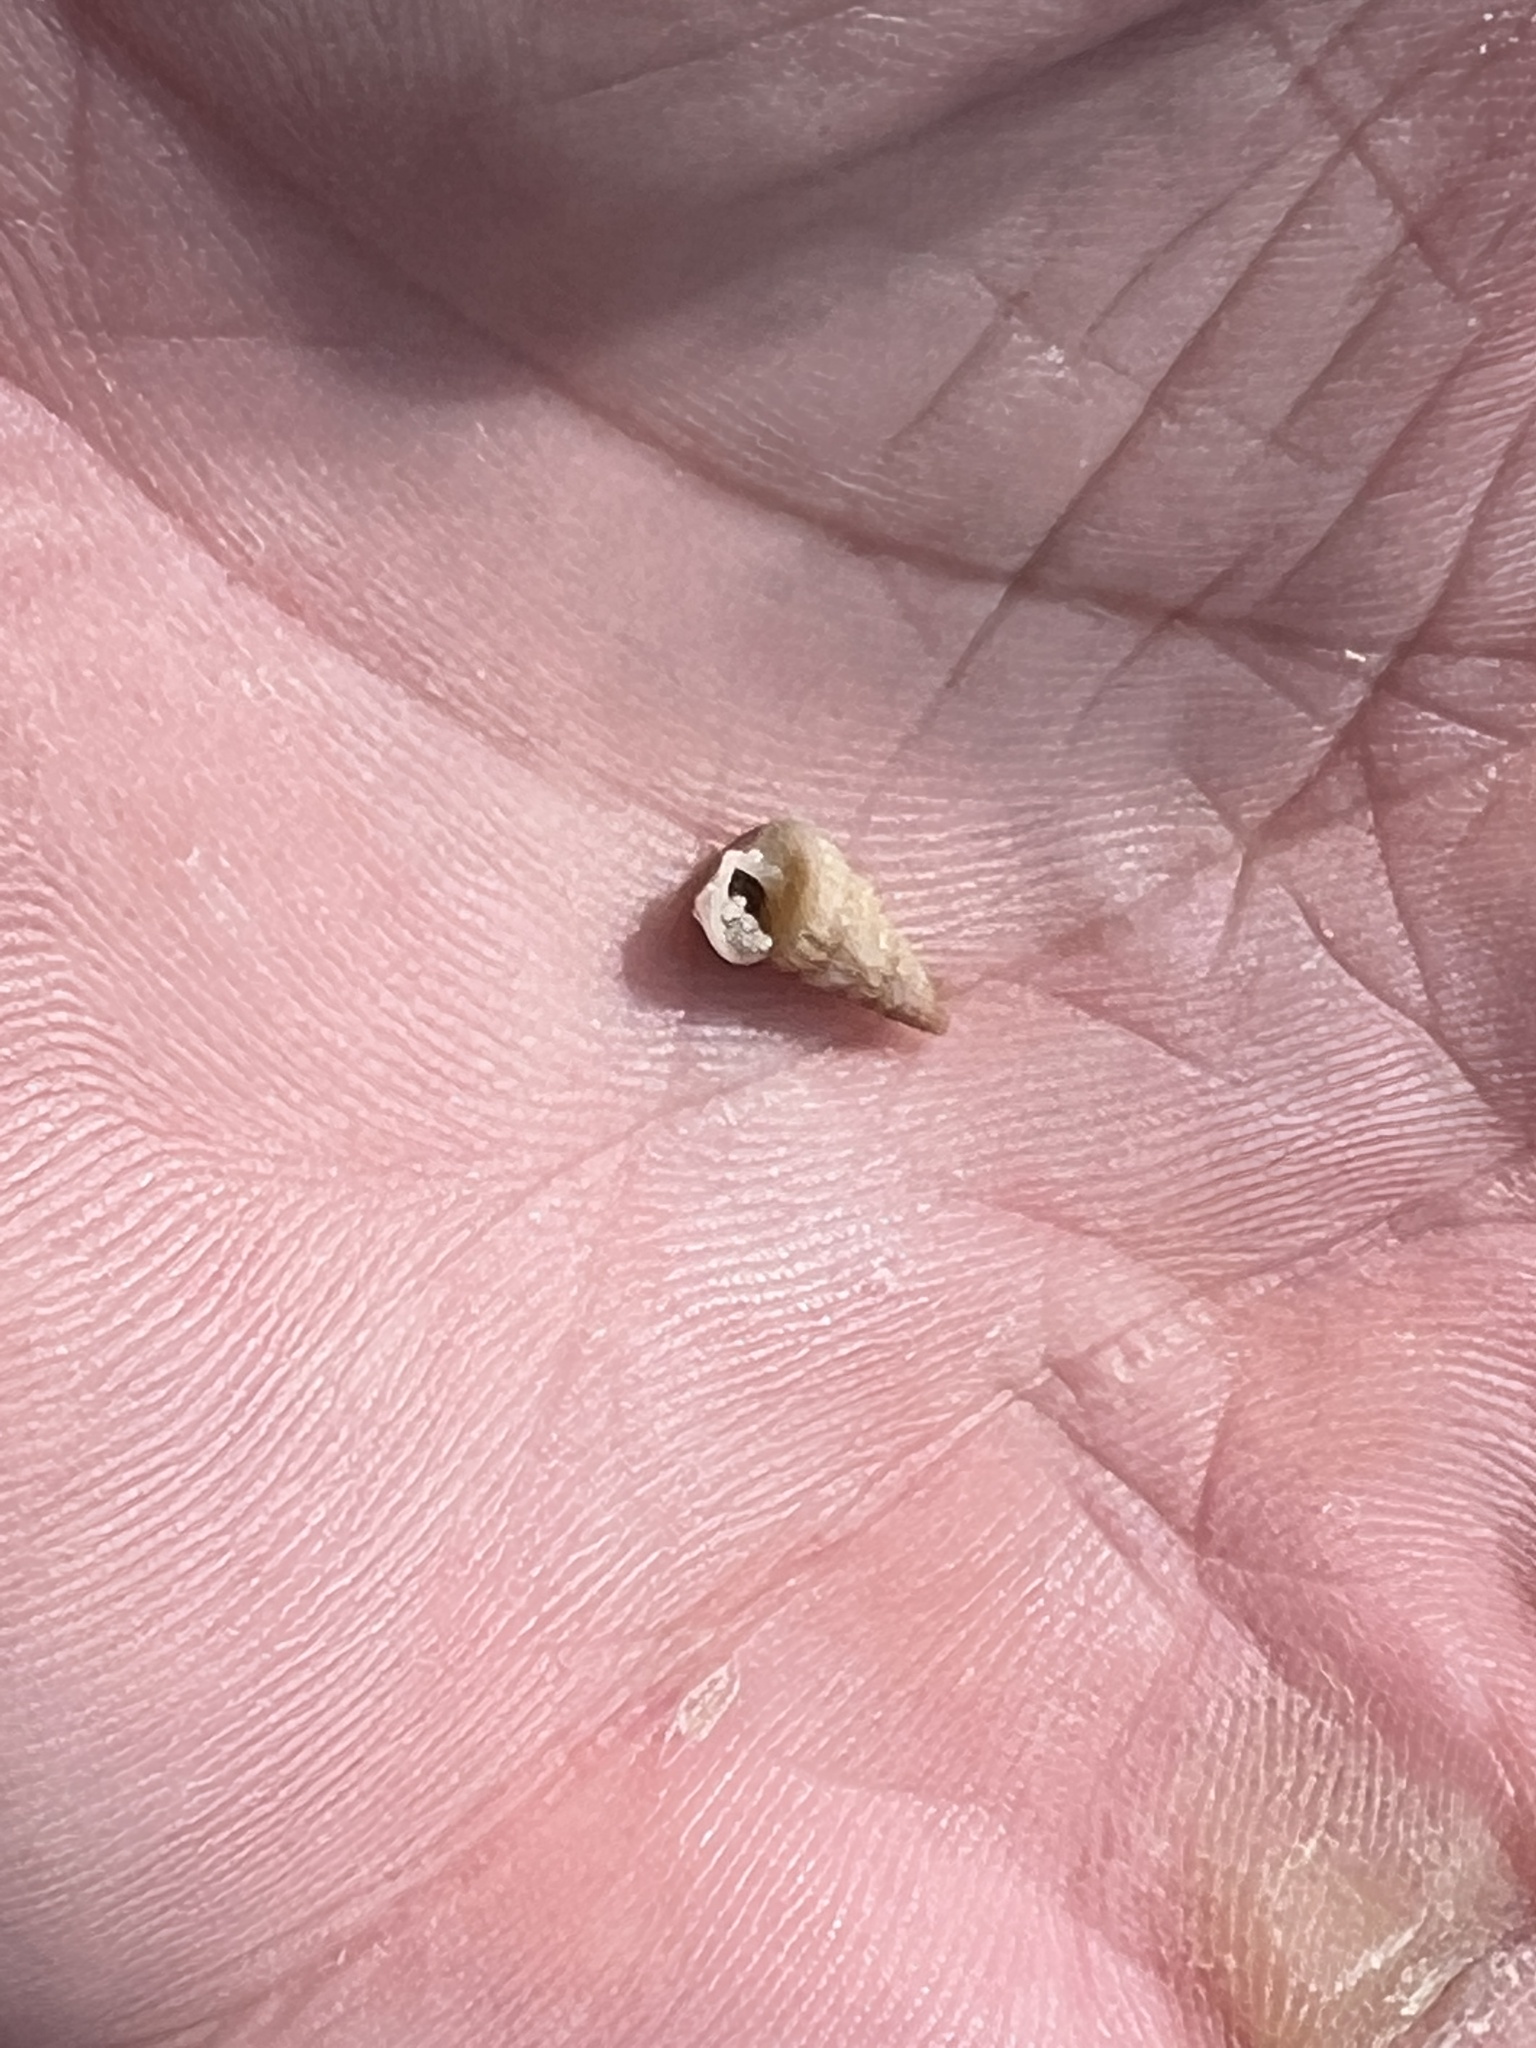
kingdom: Animalia
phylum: Mollusca
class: Gastropoda
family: Potamididae
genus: Cerithideopsis
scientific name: Cerithideopsis scalariformis
